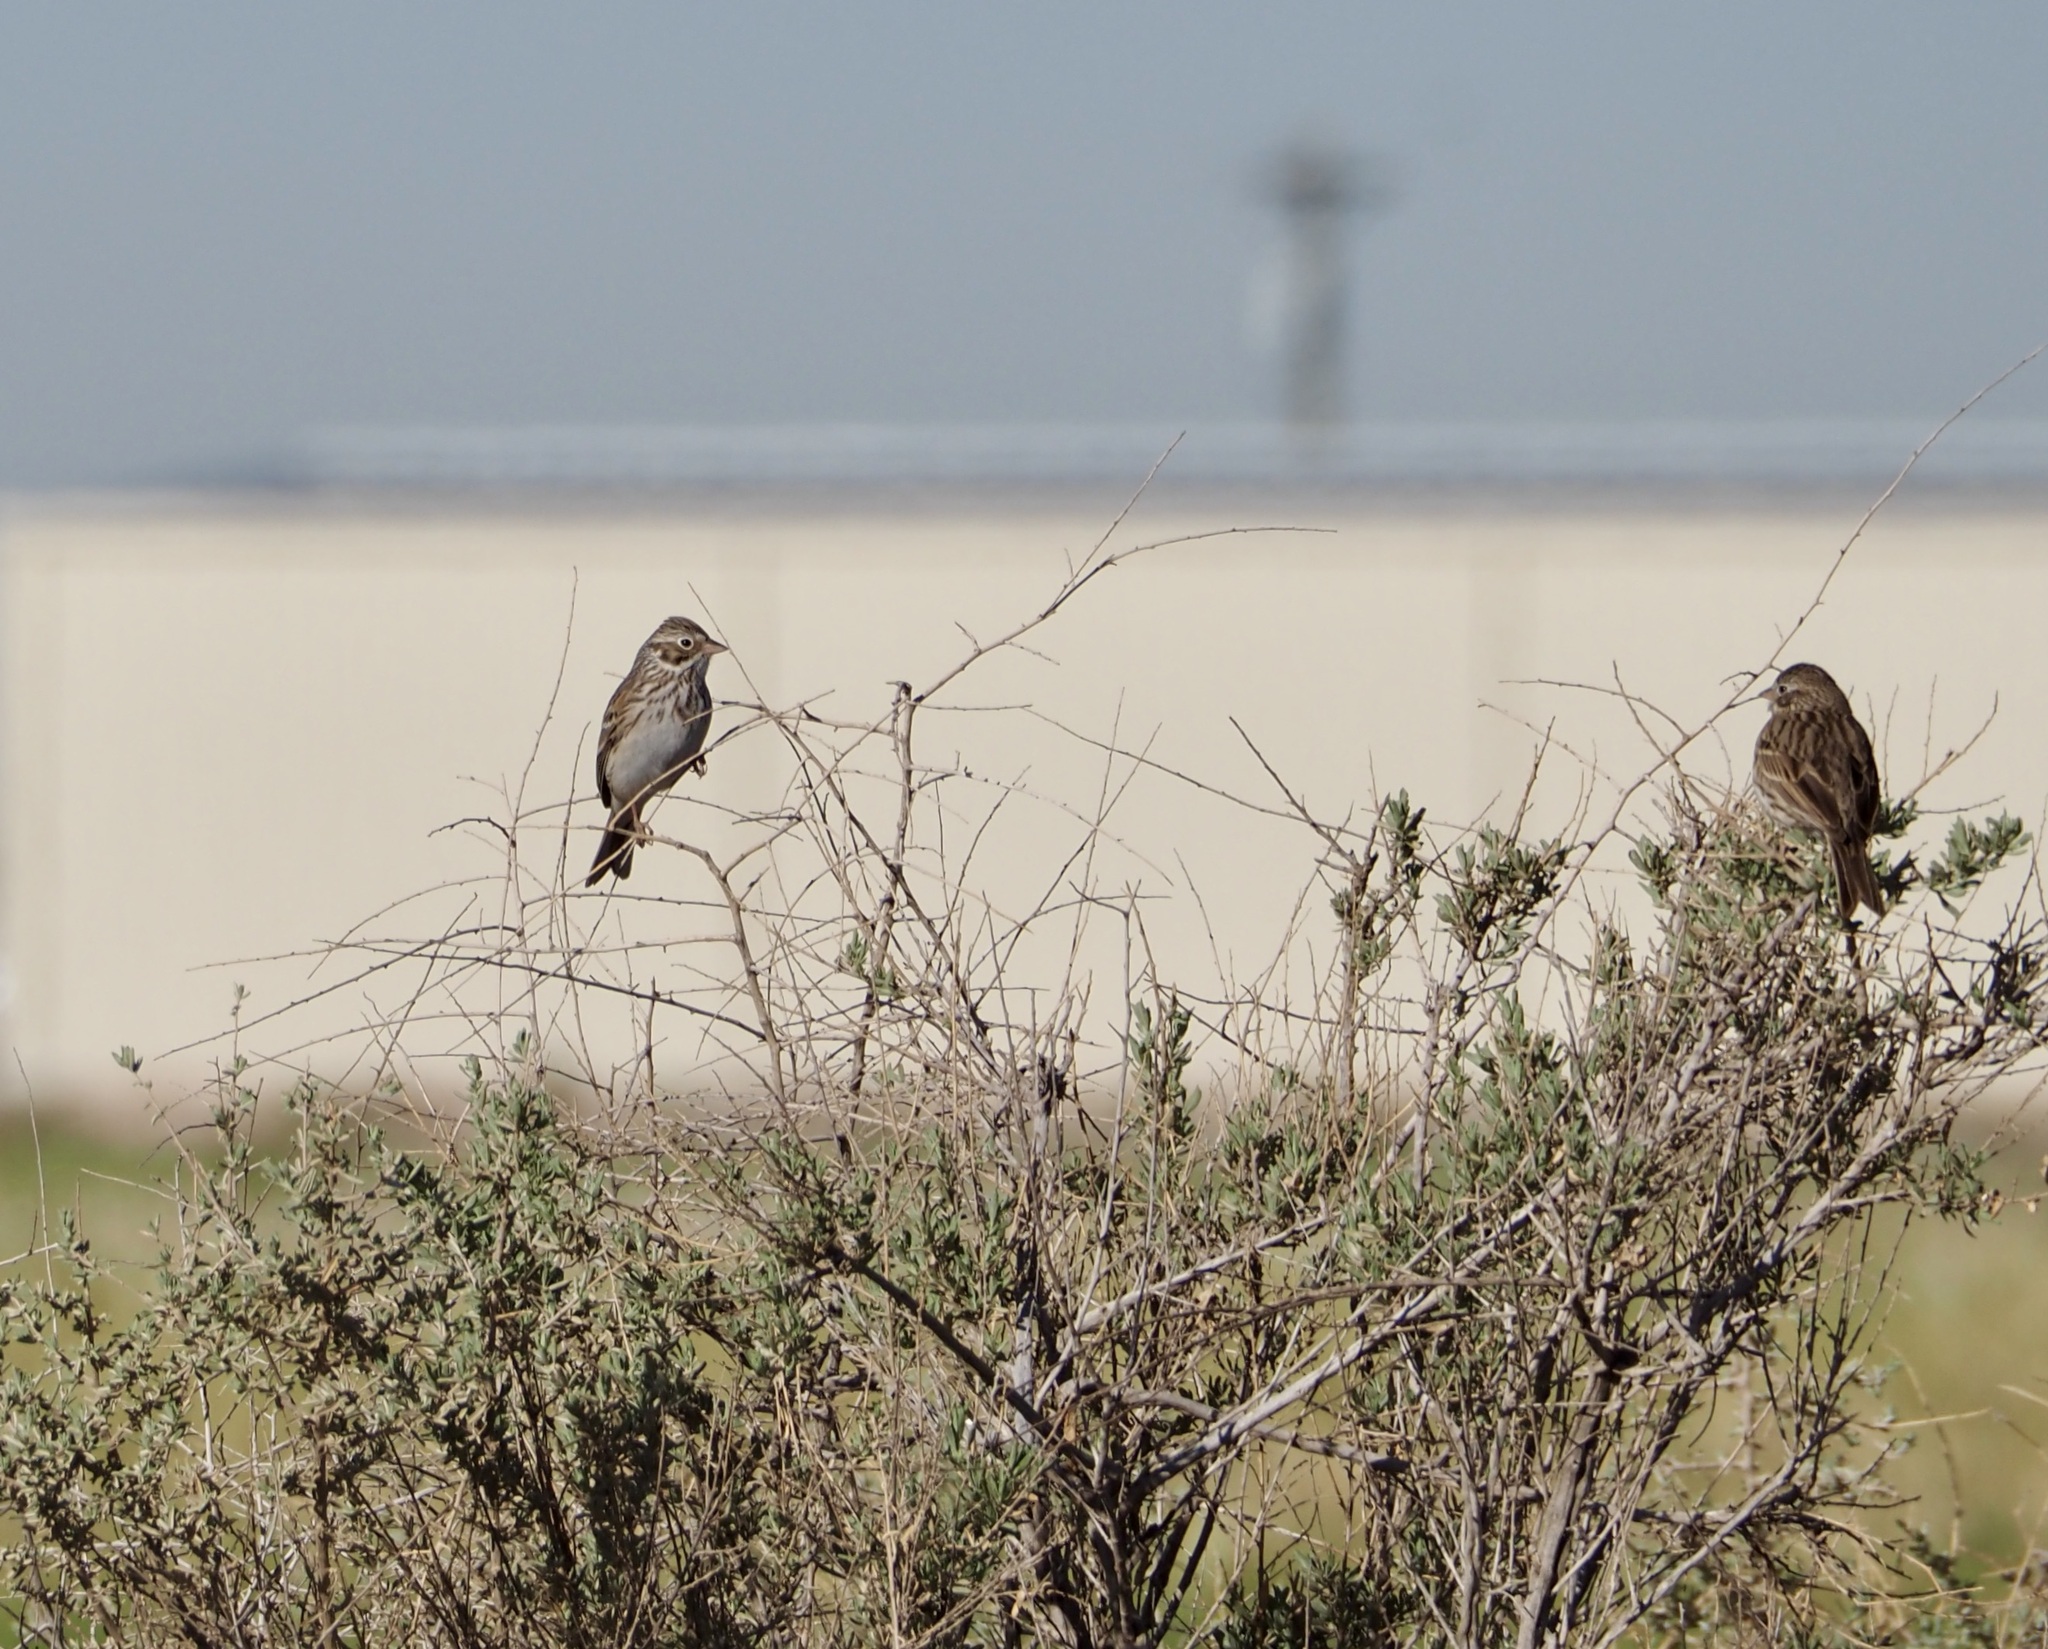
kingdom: Animalia
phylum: Chordata
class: Aves
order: Passeriformes
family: Passerellidae
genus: Pooecetes
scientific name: Pooecetes gramineus
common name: Vesper sparrow
